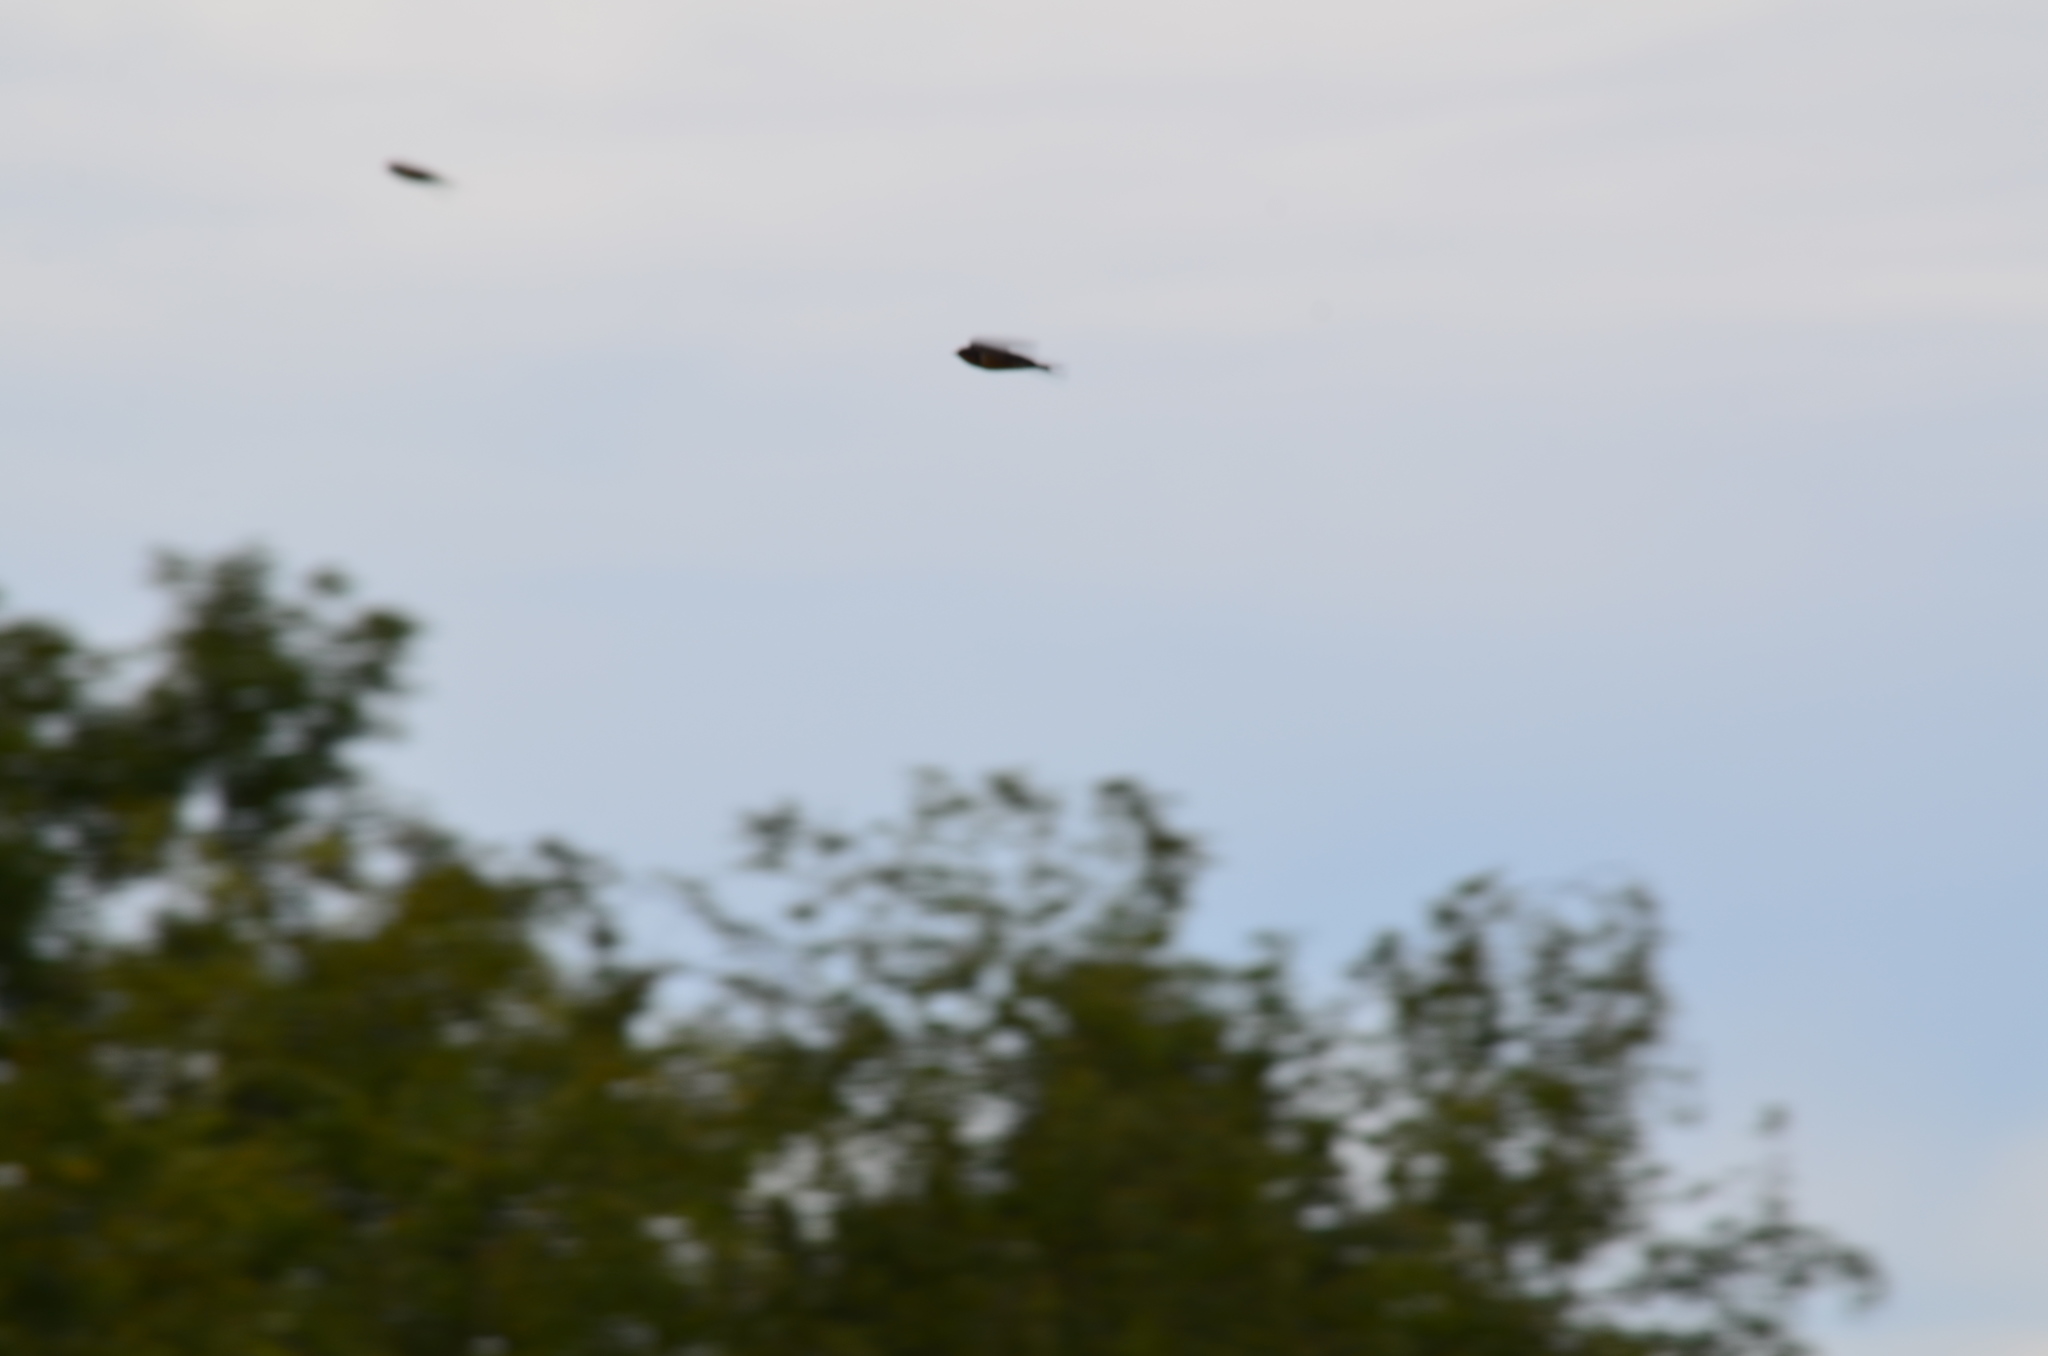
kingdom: Animalia
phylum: Chordata
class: Aves
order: Passeriformes
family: Hirundinidae
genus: Hirundo
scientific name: Hirundo rustica
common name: Barn swallow
